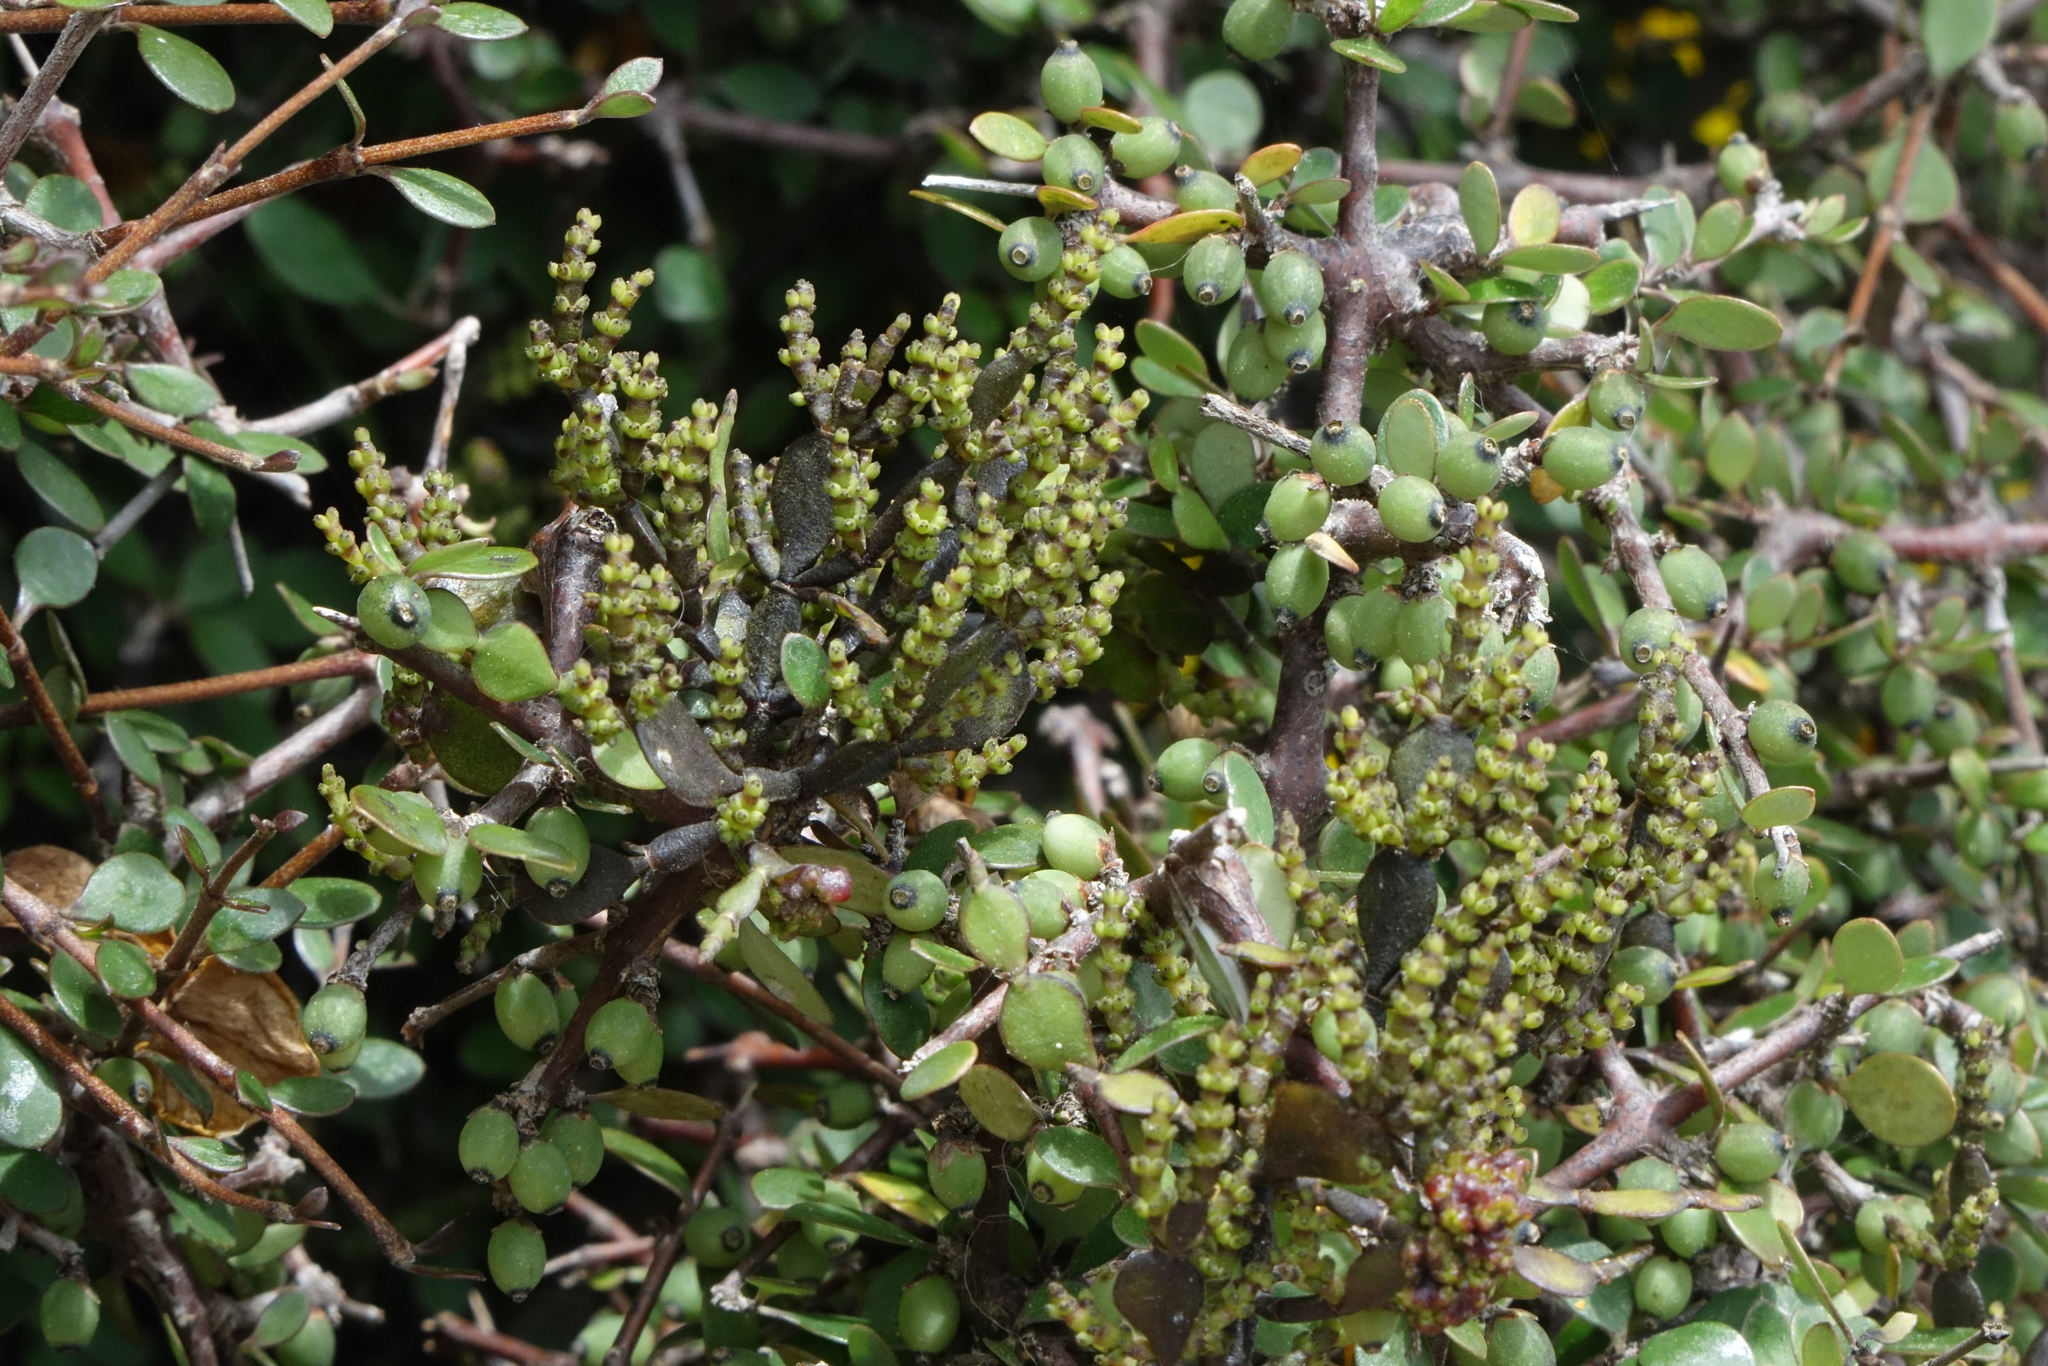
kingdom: Plantae
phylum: Tracheophyta
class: Magnoliopsida
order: Santalales
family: Viscaceae
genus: Korthalsella
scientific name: Korthalsella lindsayi
